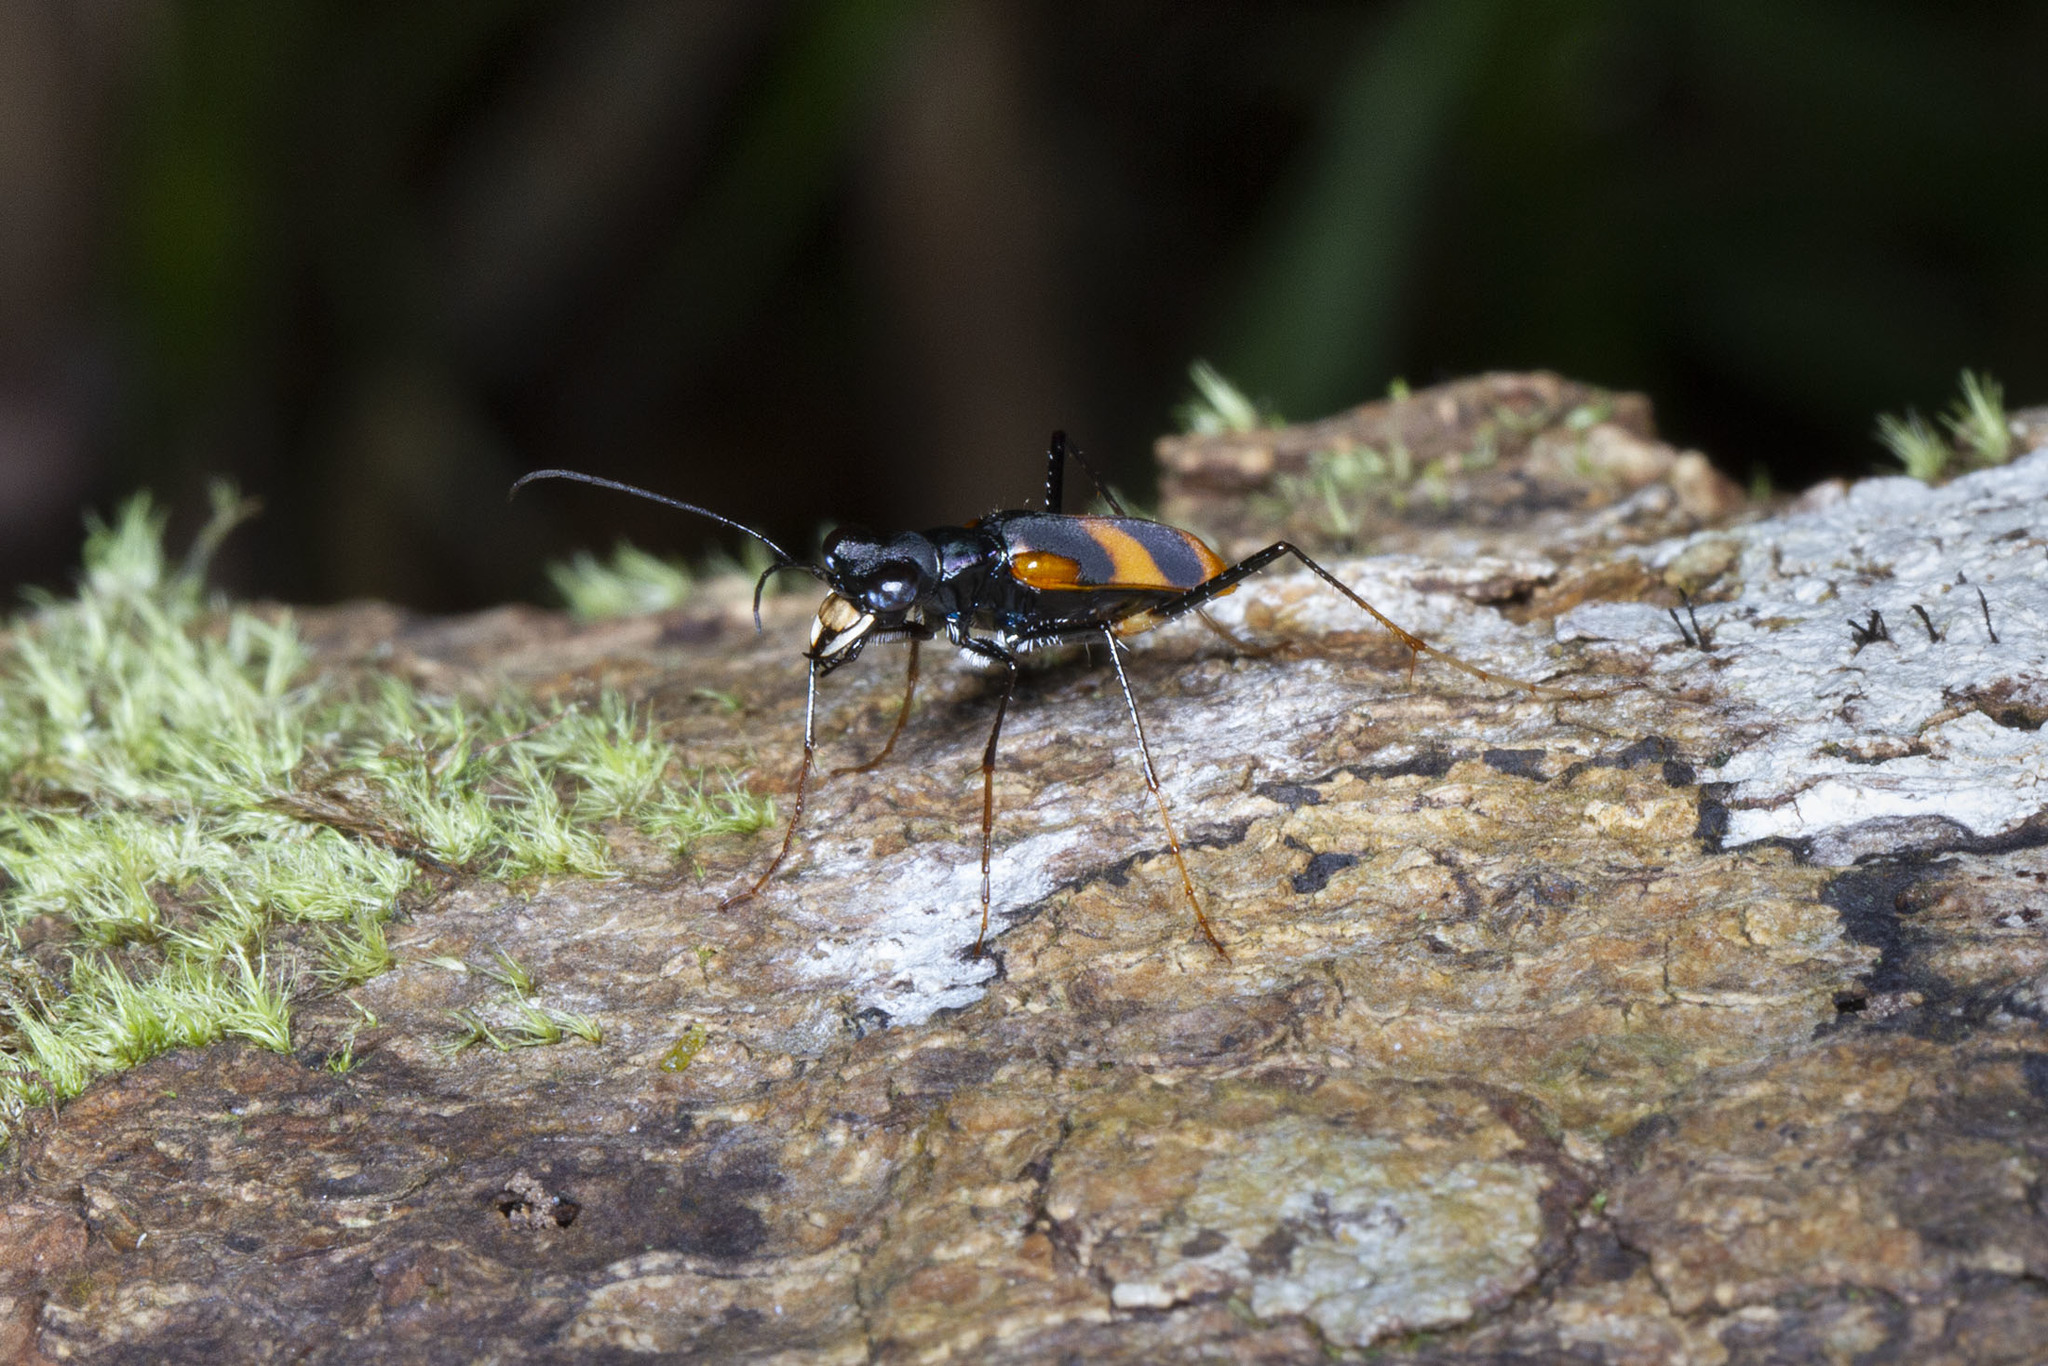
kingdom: Animalia
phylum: Arthropoda
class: Insecta
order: Coleoptera
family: Carabidae
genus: Peridexia
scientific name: Peridexia fulvipes
